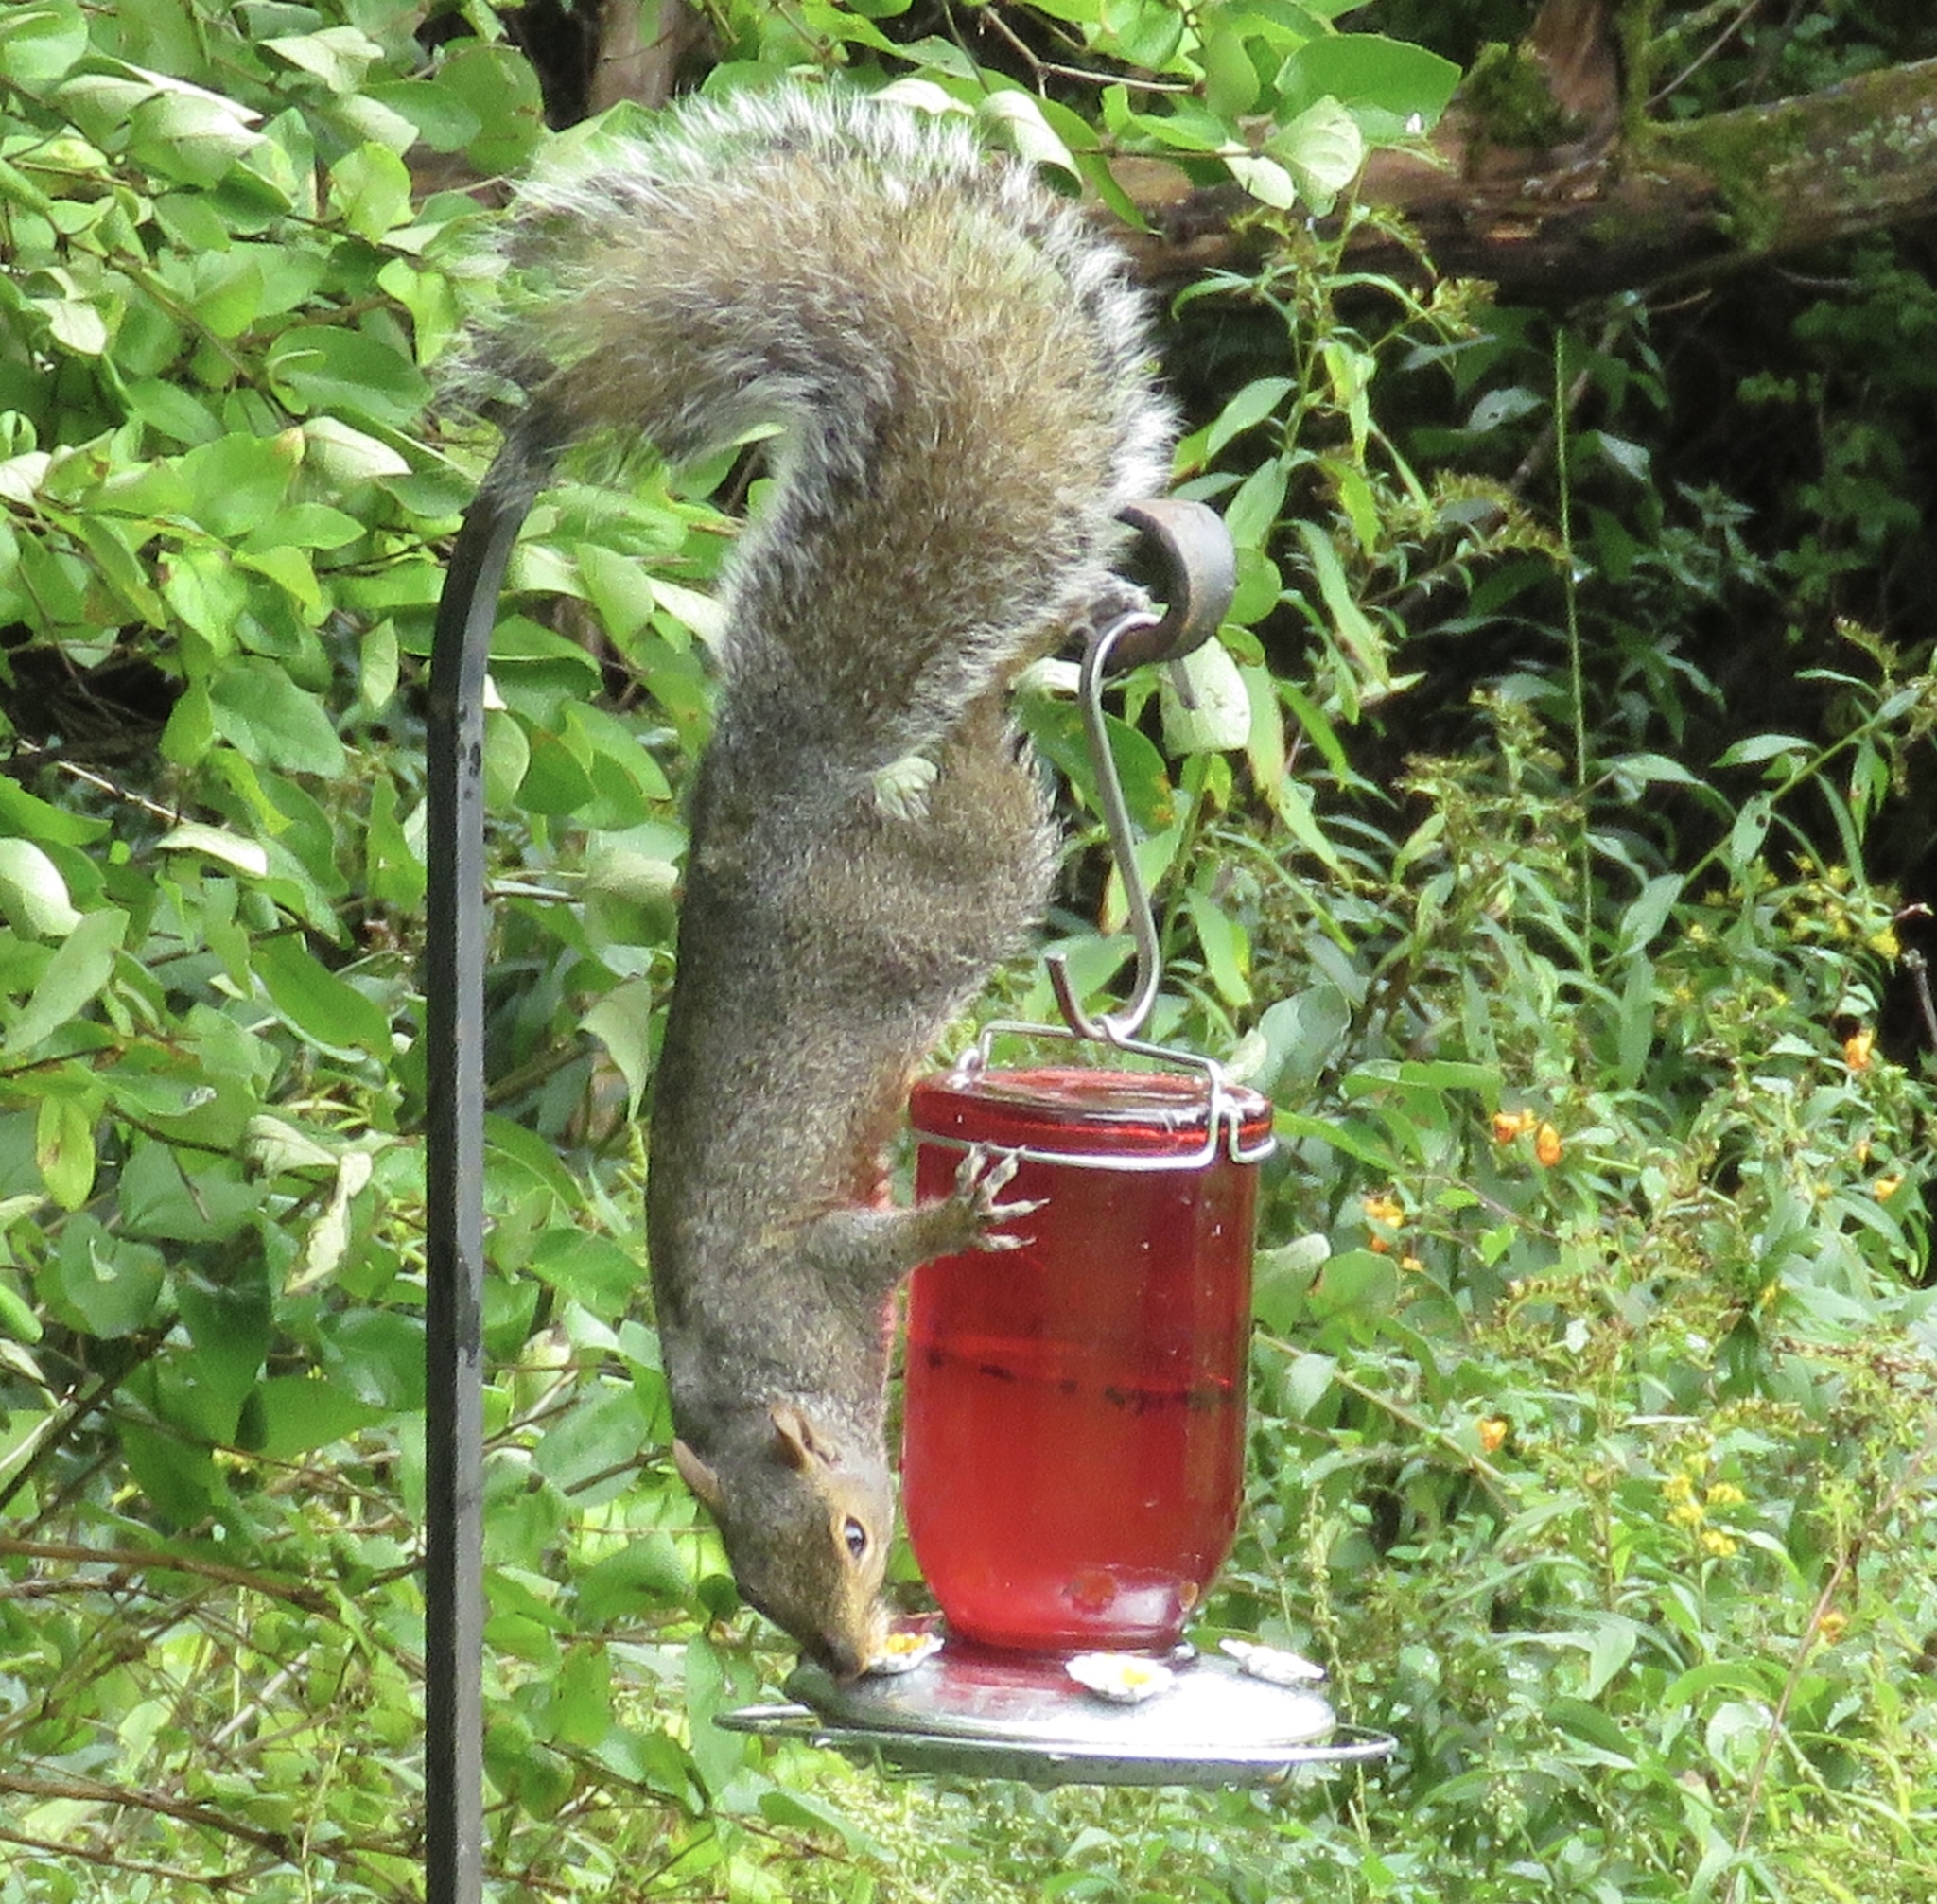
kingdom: Animalia
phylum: Chordata
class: Mammalia
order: Rodentia
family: Sciuridae
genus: Sciurus
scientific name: Sciurus carolinensis
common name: Eastern gray squirrel
